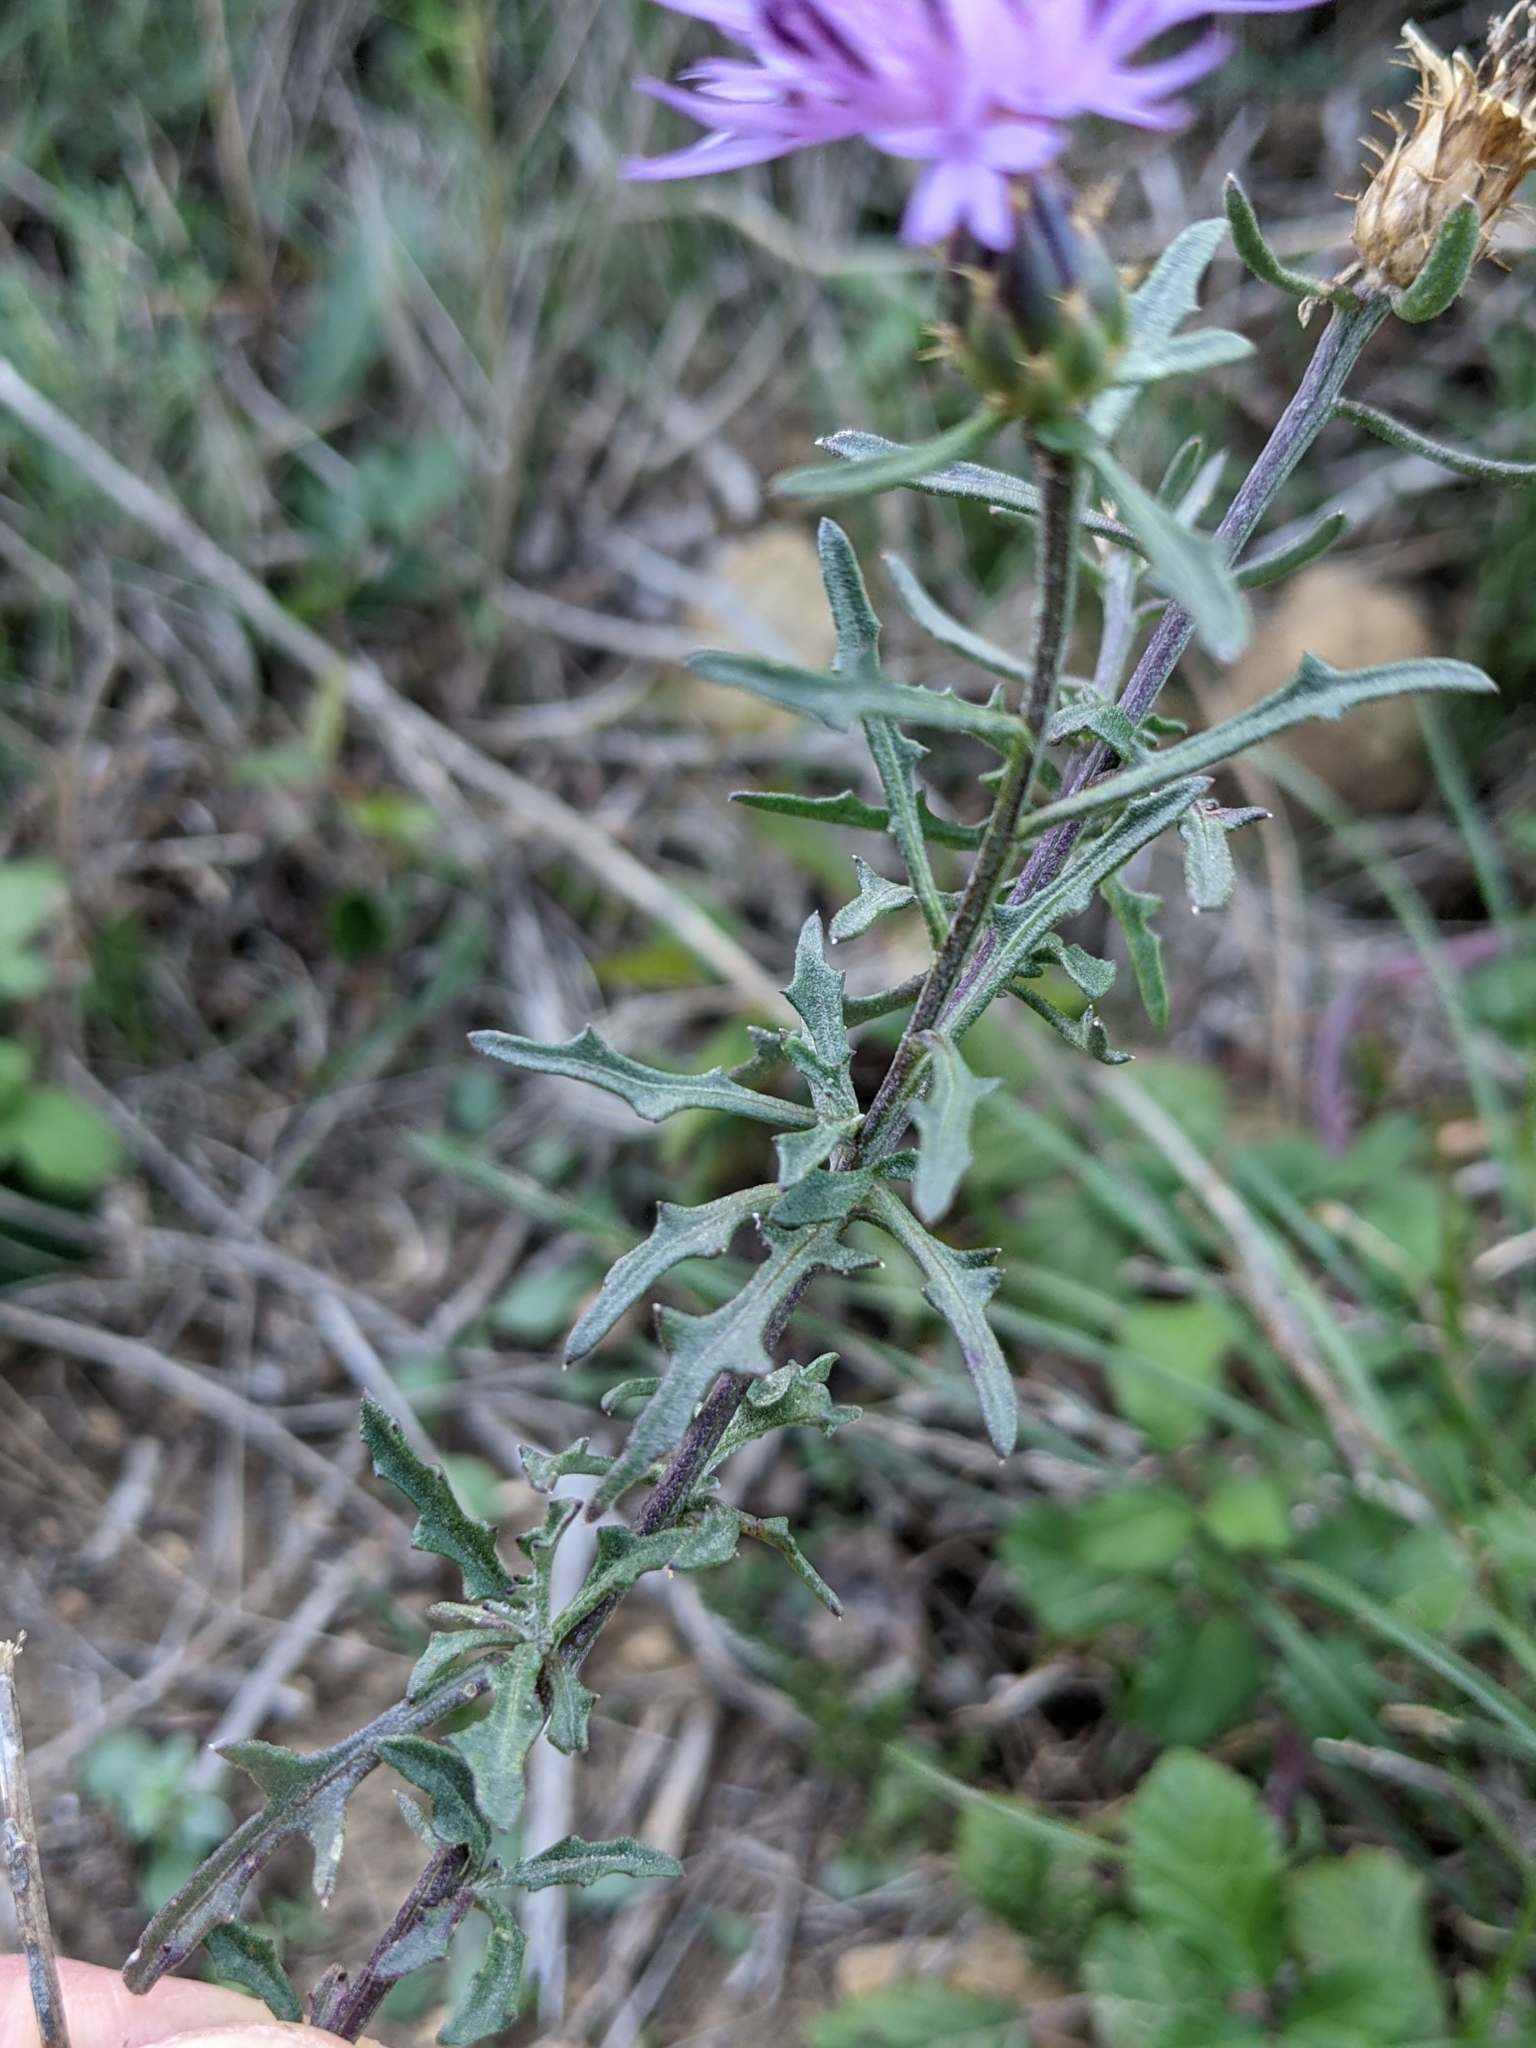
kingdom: Plantae
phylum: Tracheophyta
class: Magnoliopsida
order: Asterales
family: Asteraceae
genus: Centaurea
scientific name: Centaurea aspera
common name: Rough star-thistle
